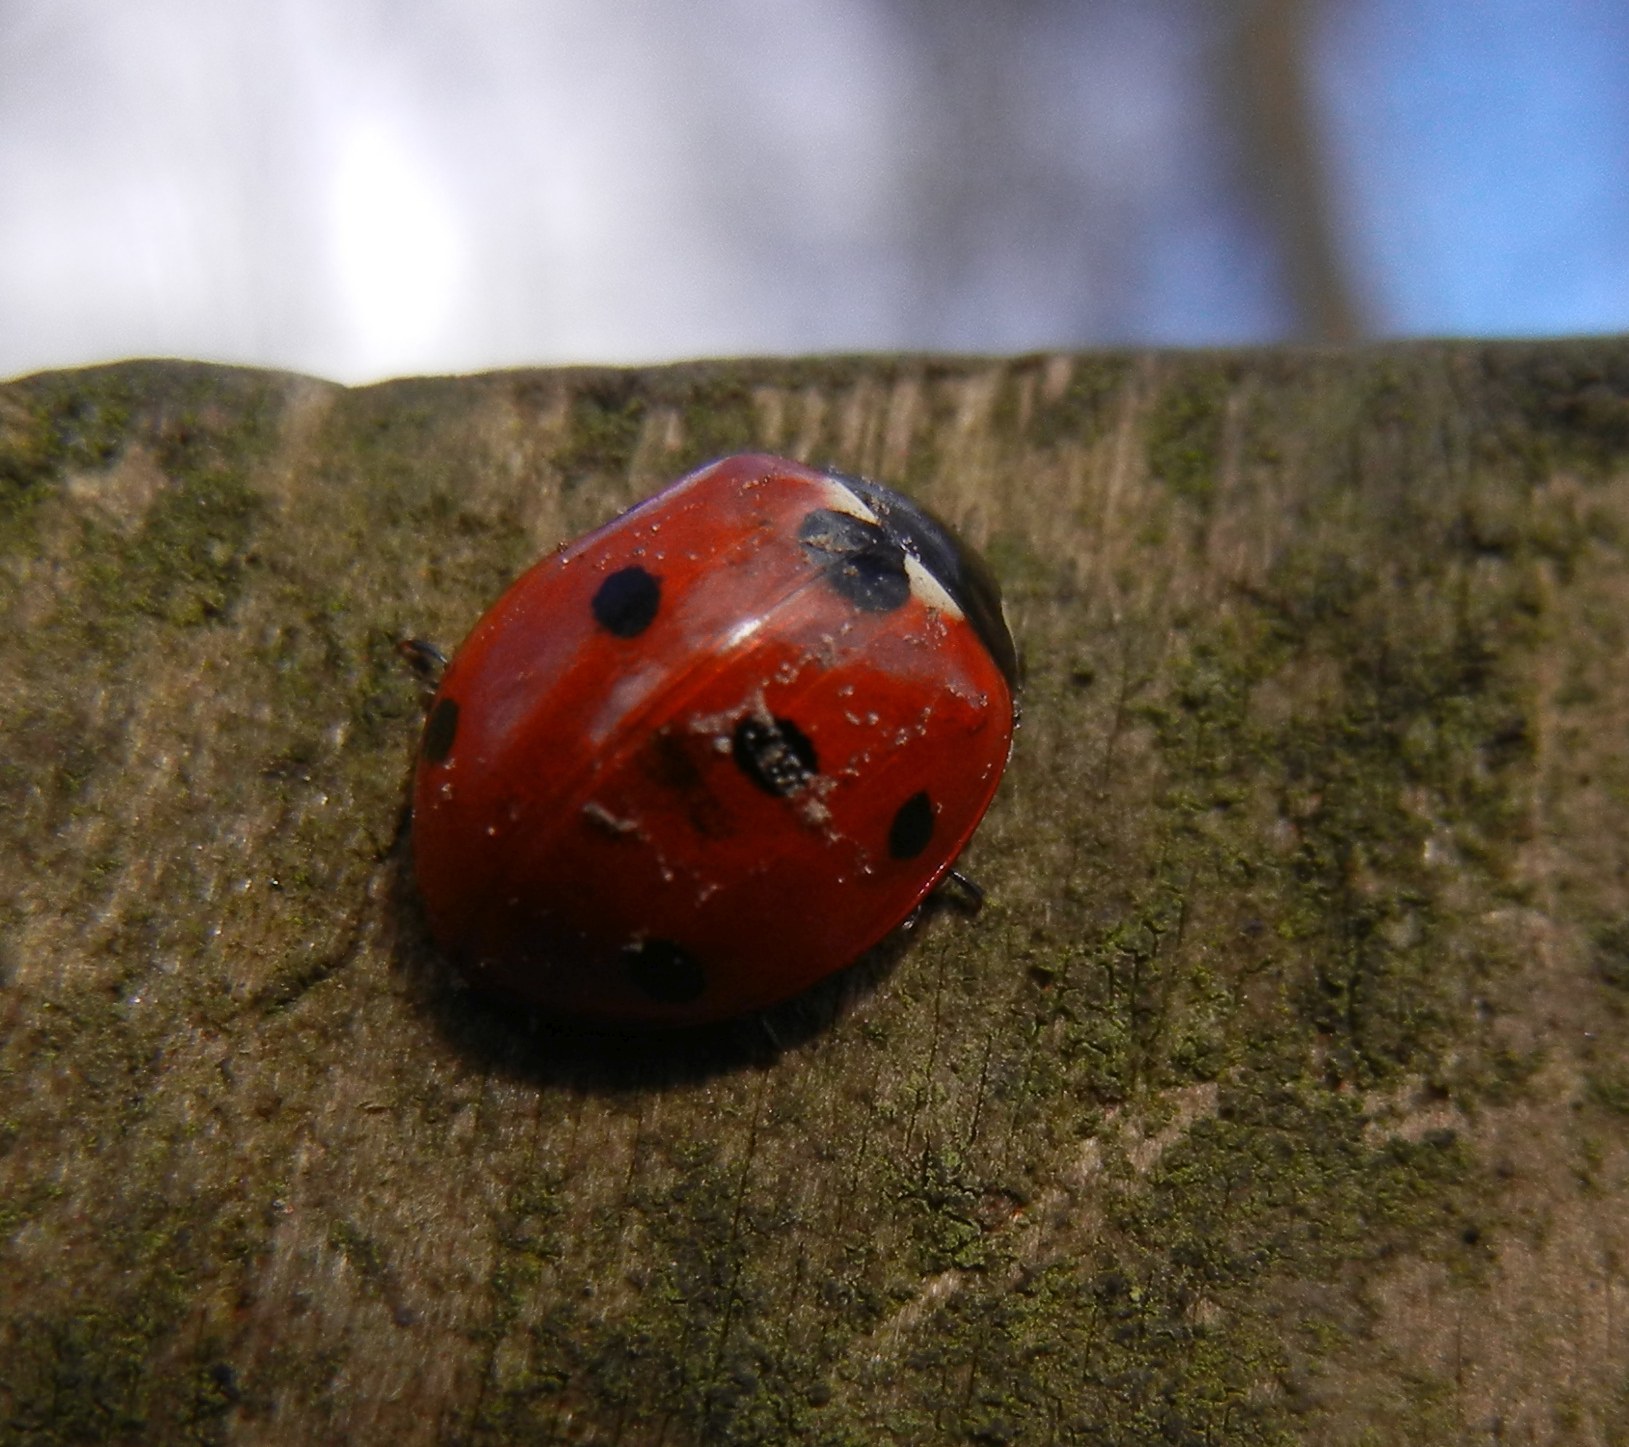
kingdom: Animalia
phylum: Arthropoda
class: Insecta
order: Coleoptera
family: Coccinellidae
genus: Coccinella
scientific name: Coccinella septempunctata
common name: Sevenspotted lady beetle
